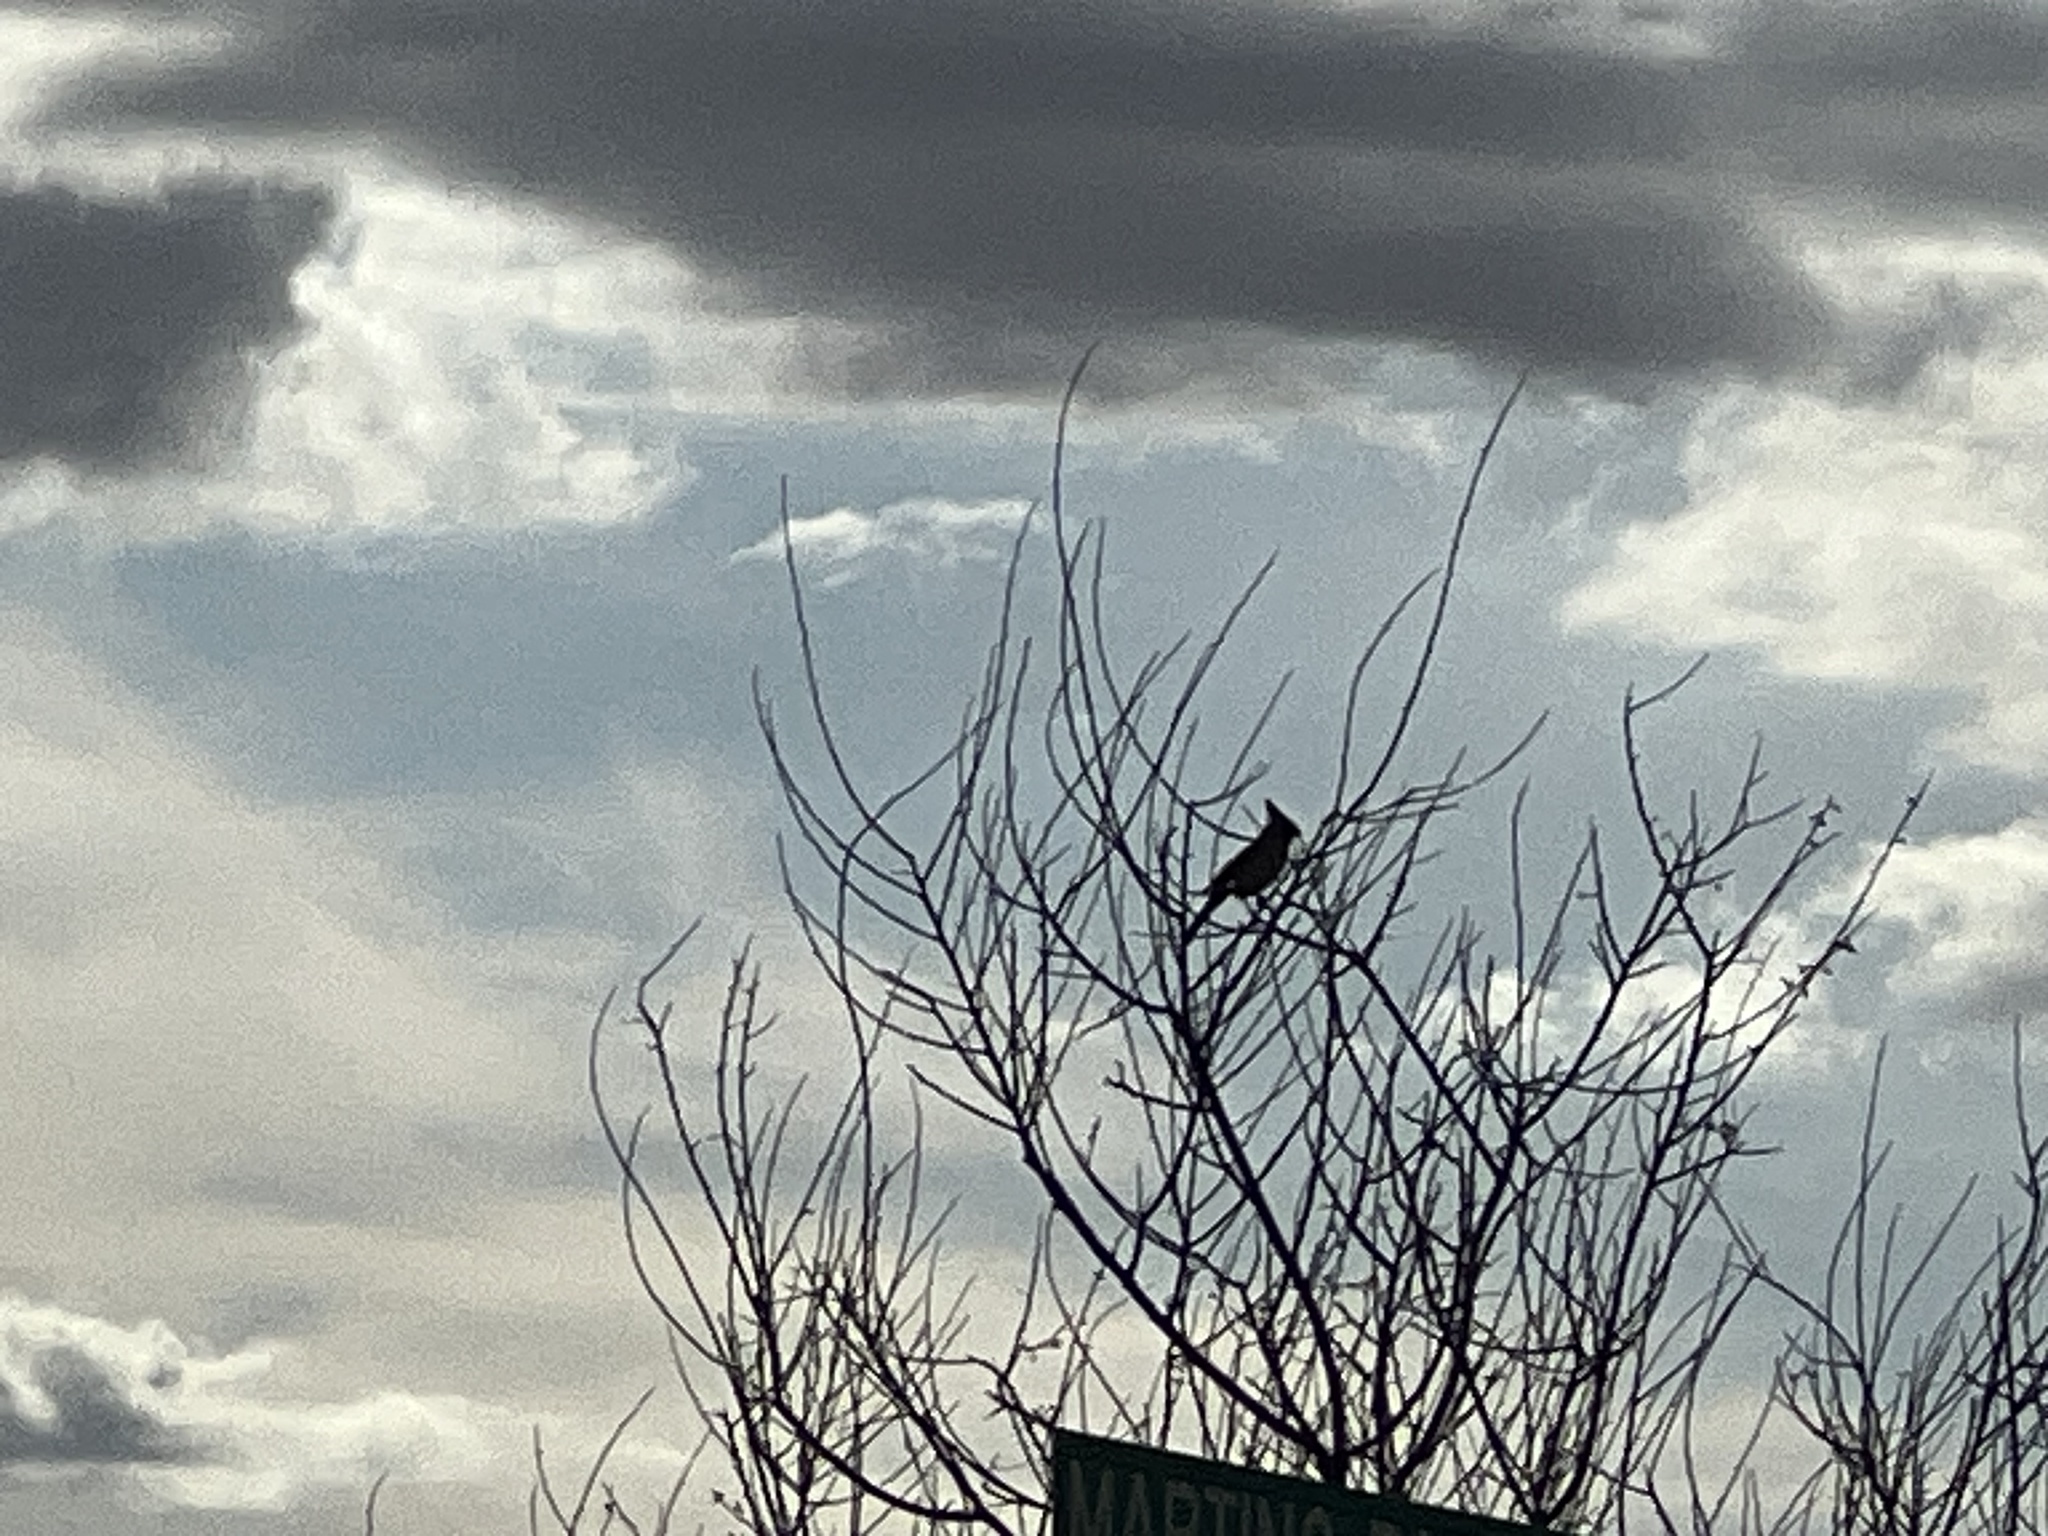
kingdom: Animalia
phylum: Chordata
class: Aves
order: Passeriformes
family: Ptilogonatidae
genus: Phainopepla
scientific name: Phainopepla nitens
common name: Phainopepla
